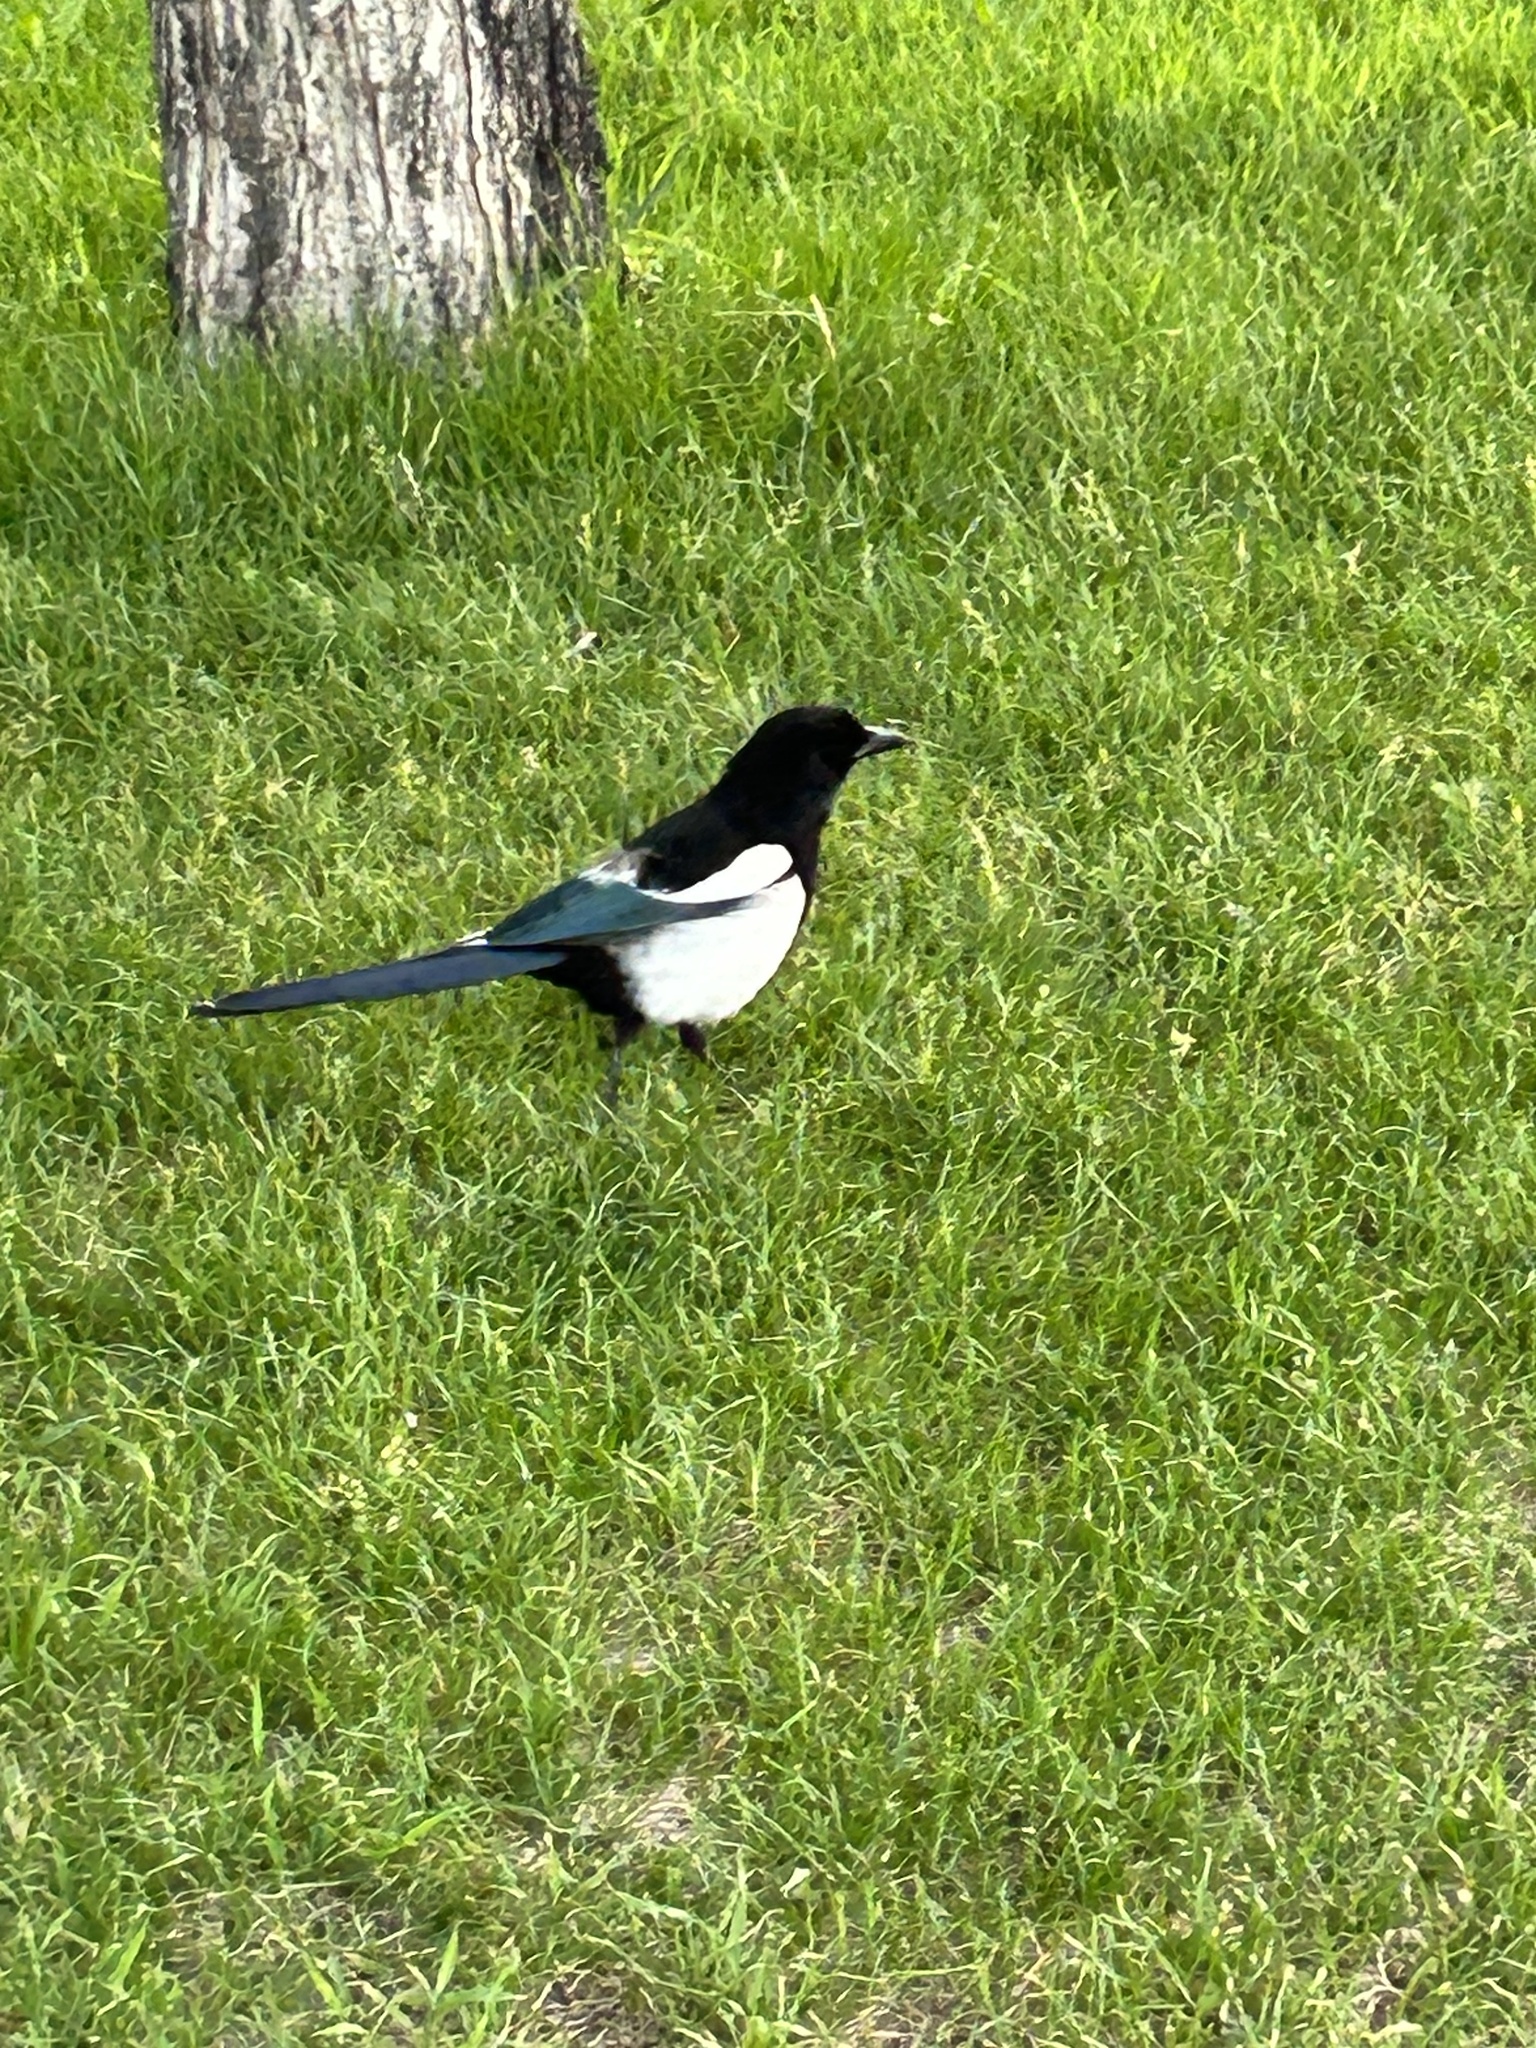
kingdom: Animalia
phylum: Chordata
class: Aves
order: Passeriformes
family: Corvidae
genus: Pica
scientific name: Pica hudsonia
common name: Black-billed magpie
